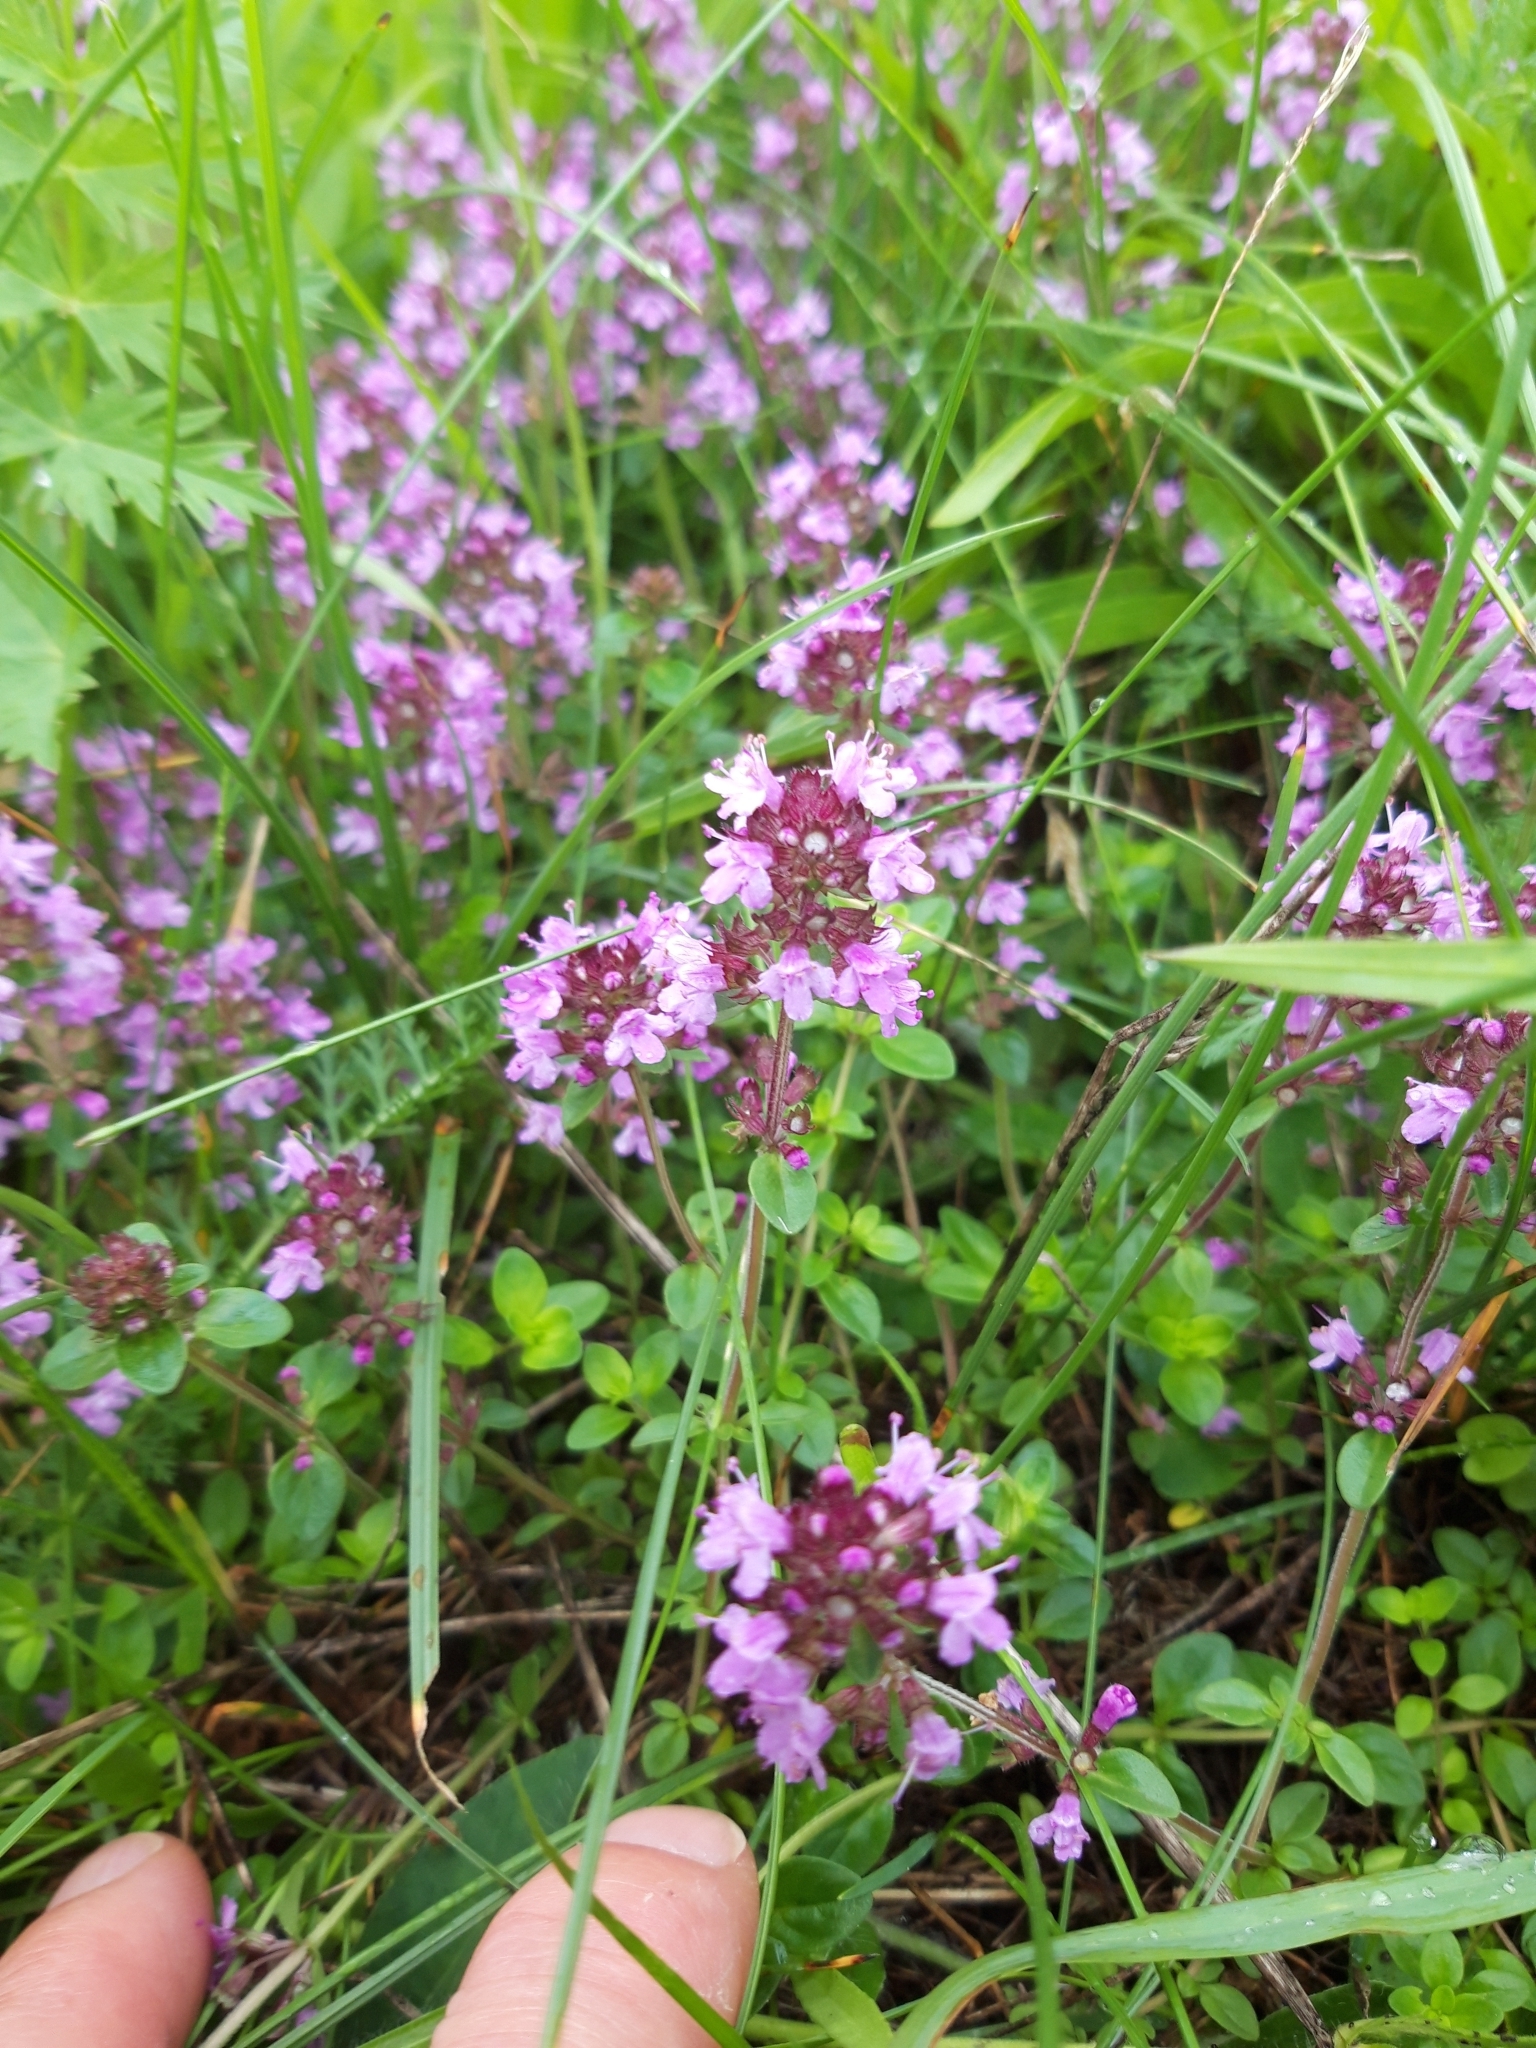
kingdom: Plantae
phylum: Tracheophyta
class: Magnoliopsida
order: Lamiales
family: Lamiaceae
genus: Thymus
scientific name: Thymus pulegioides
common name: Large thyme
